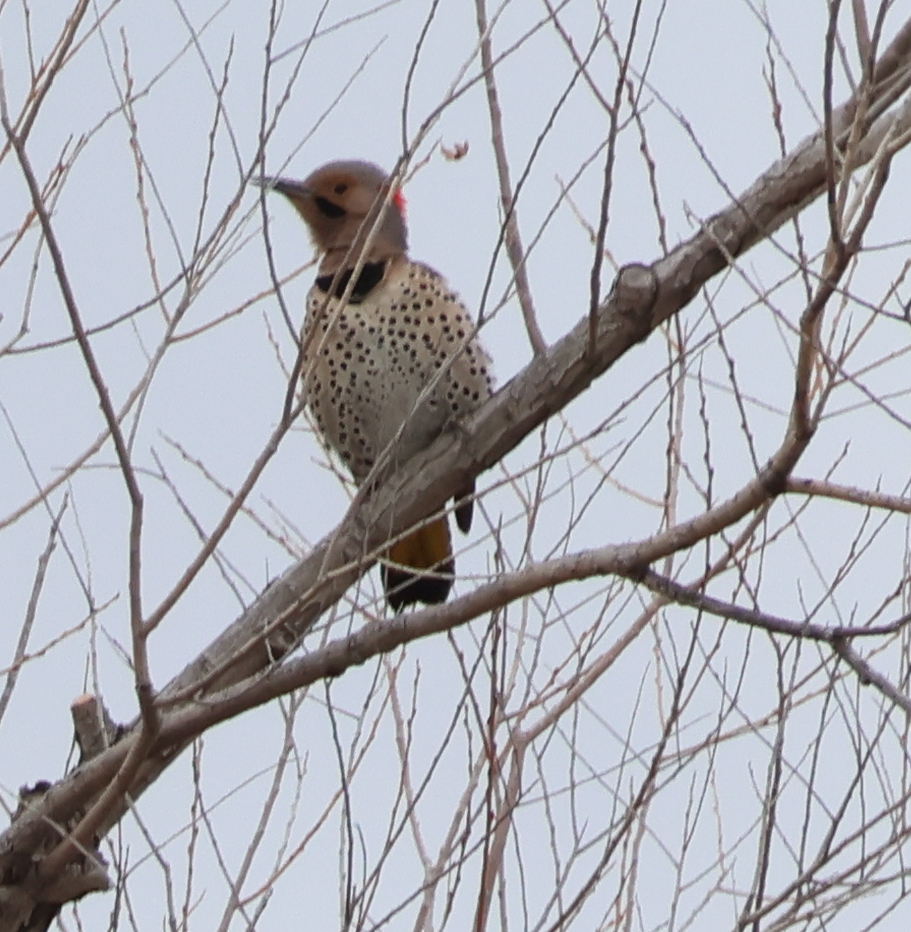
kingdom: Animalia
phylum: Chordata
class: Aves
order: Piciformes
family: Picidae
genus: Colaptes
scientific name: Colaptes auratus
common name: Northern flicker
